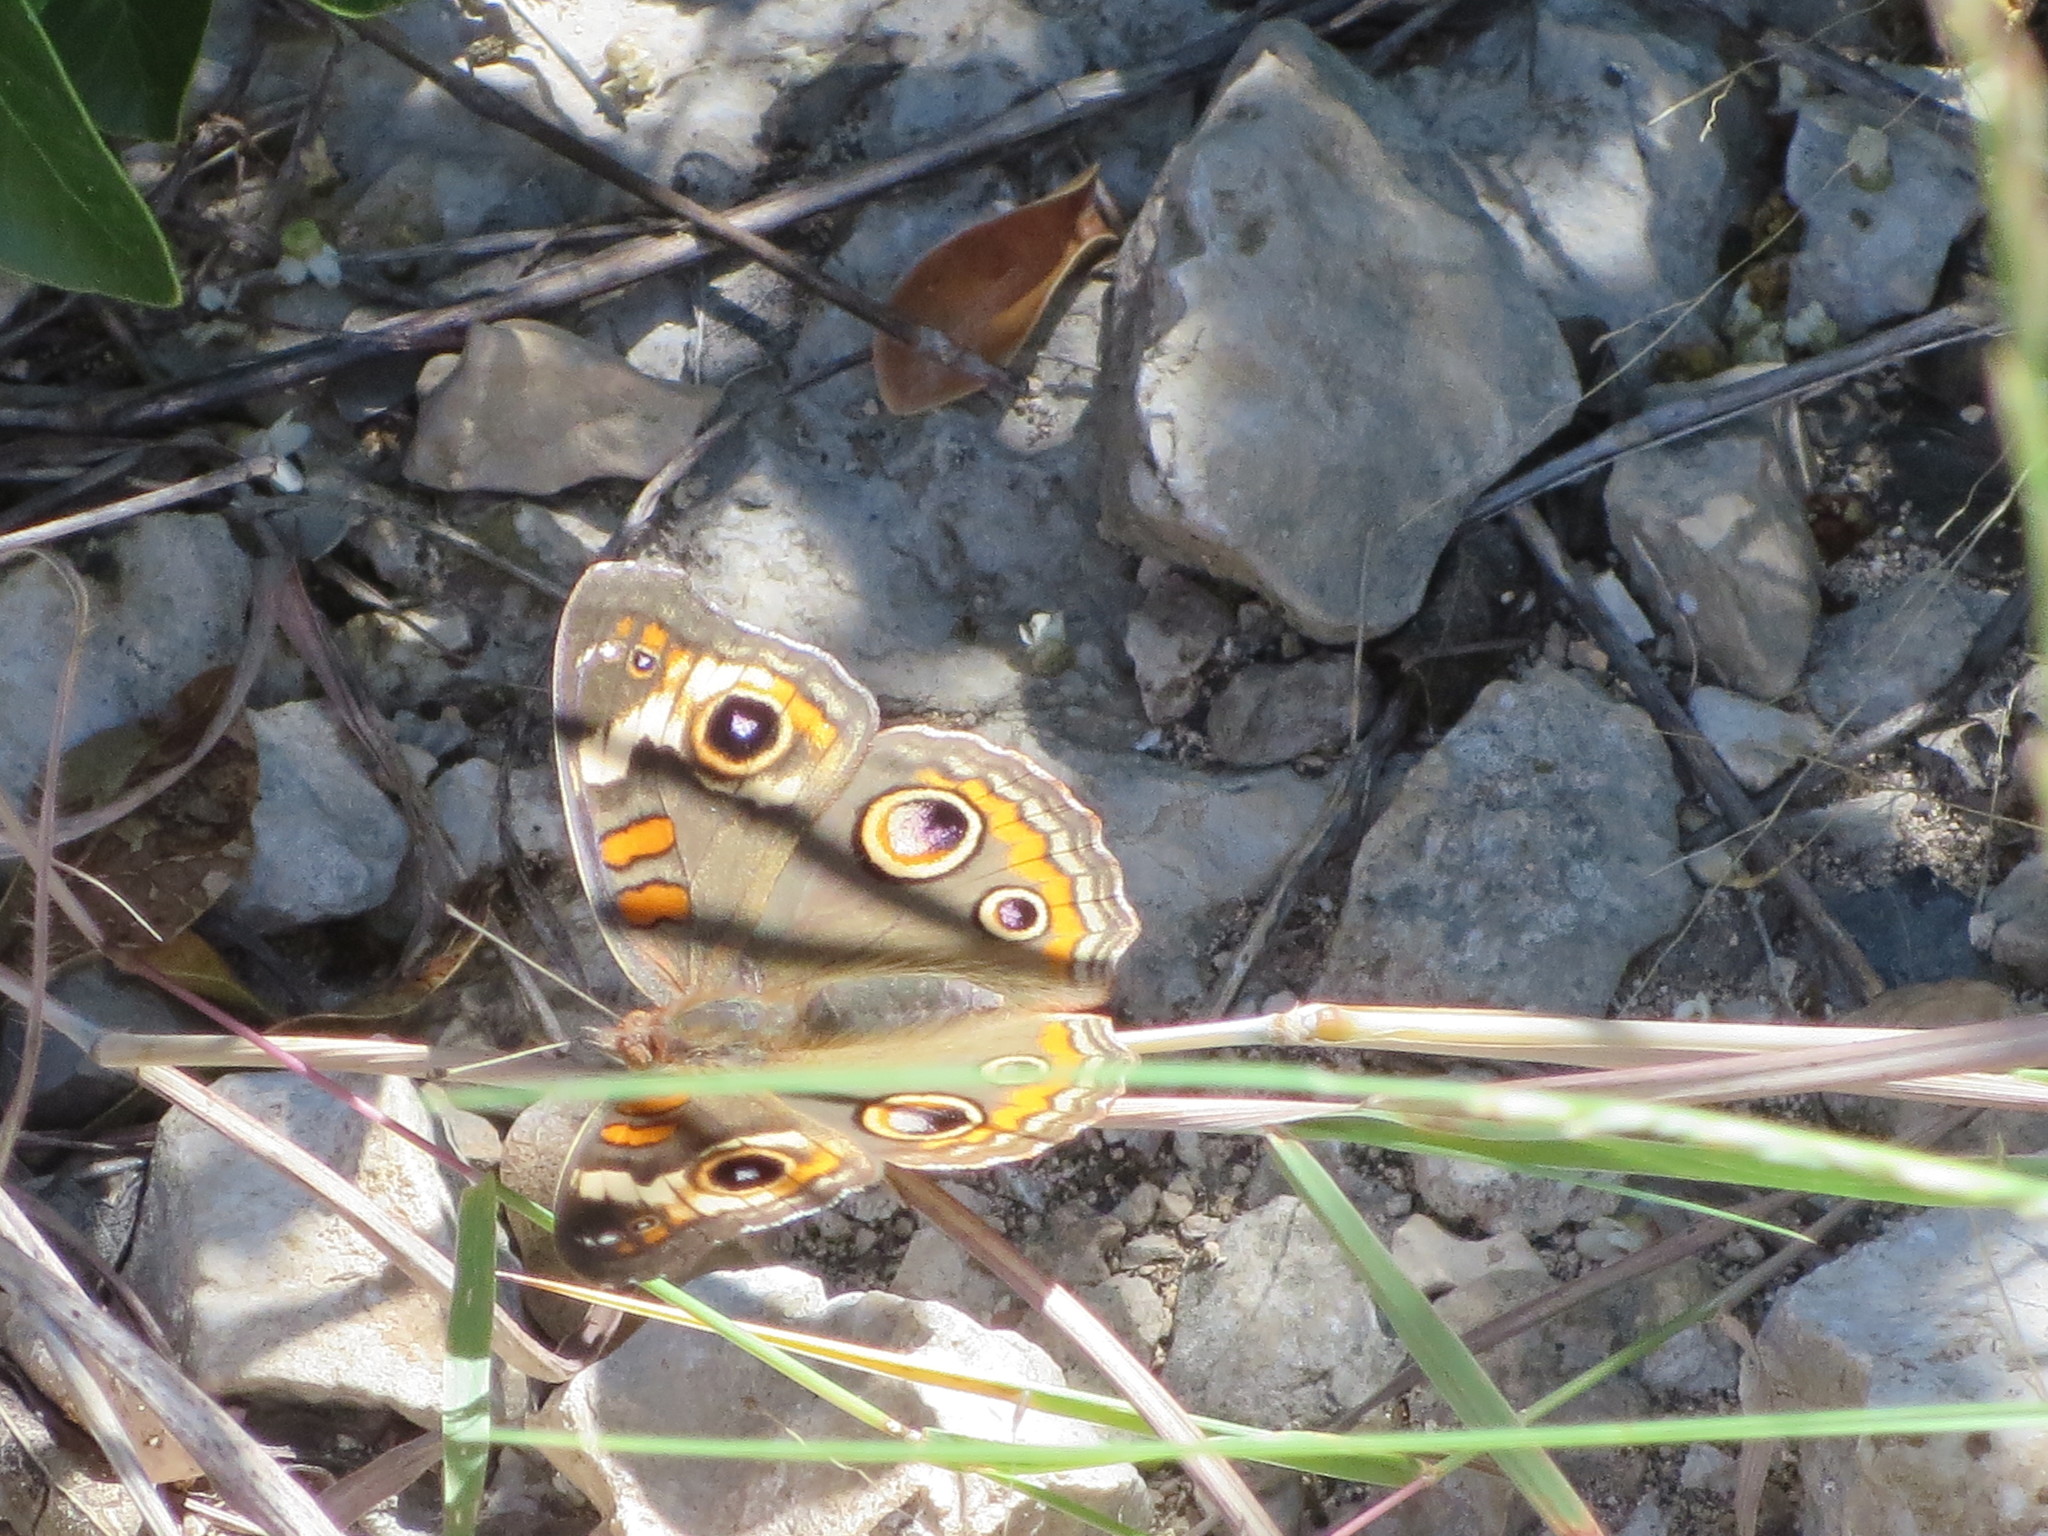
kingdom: Animalia
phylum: Arthropoda
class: Insecta
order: Lepidoptera
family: Nymphalidae
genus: Junonia
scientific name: Junonia coenia
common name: Common buckeye
